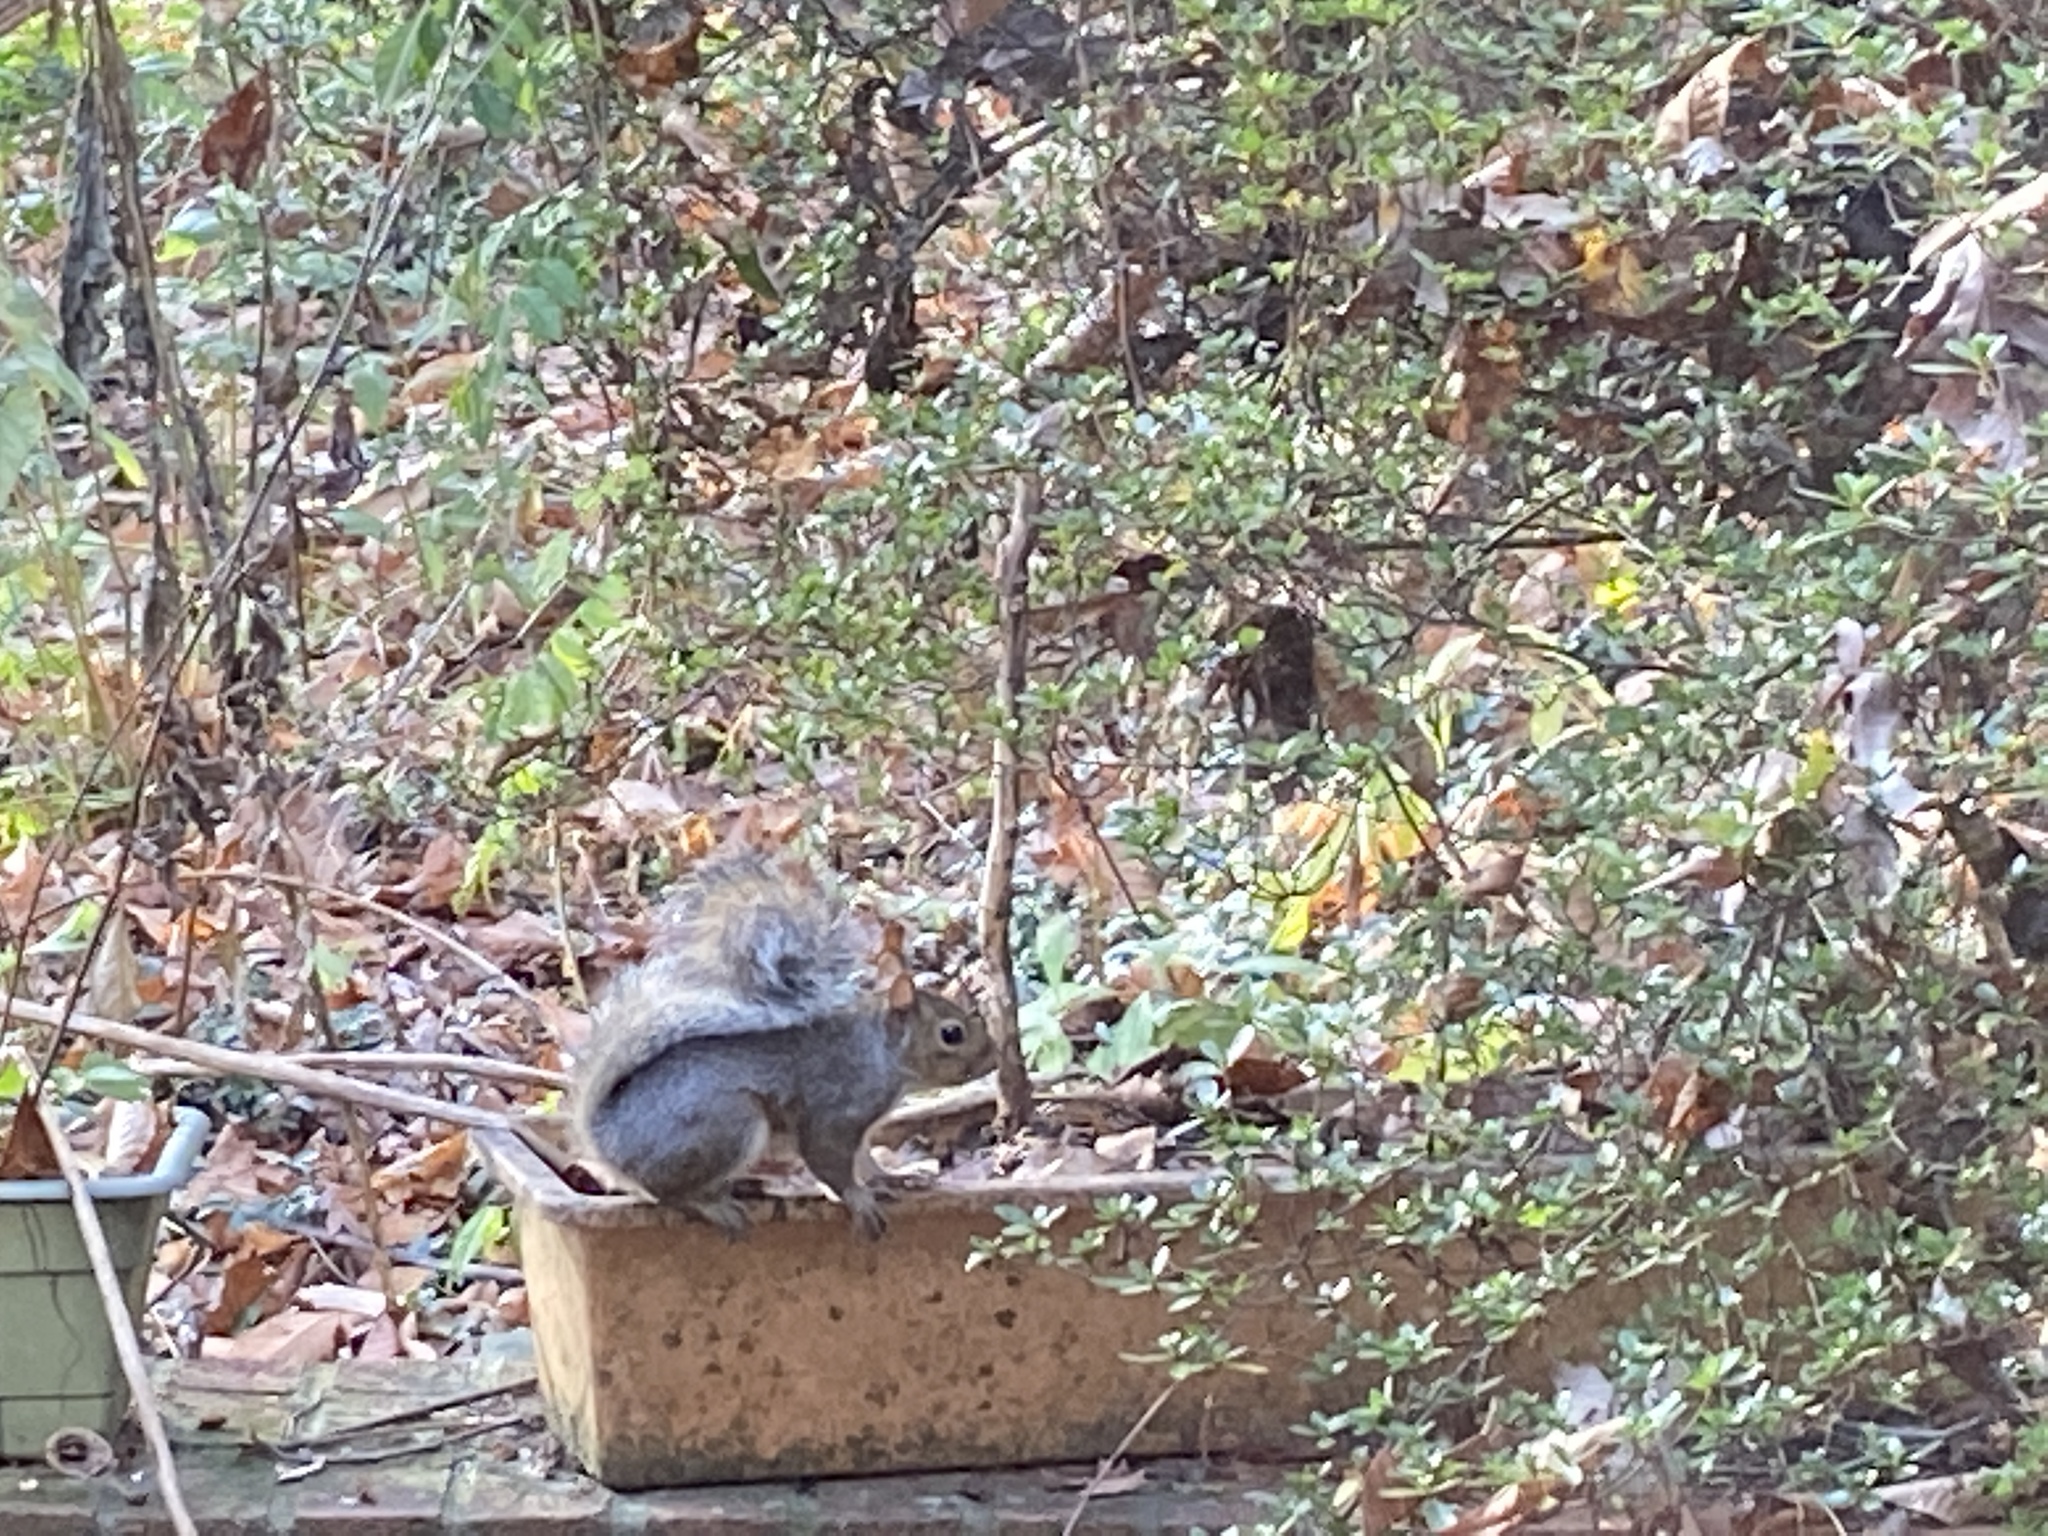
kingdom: Animalia
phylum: Chordata
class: Mammalia
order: Rodentia
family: Sciuridae
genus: Sciurus
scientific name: Sciurus carolinensis
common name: Eastern gray squirrel
